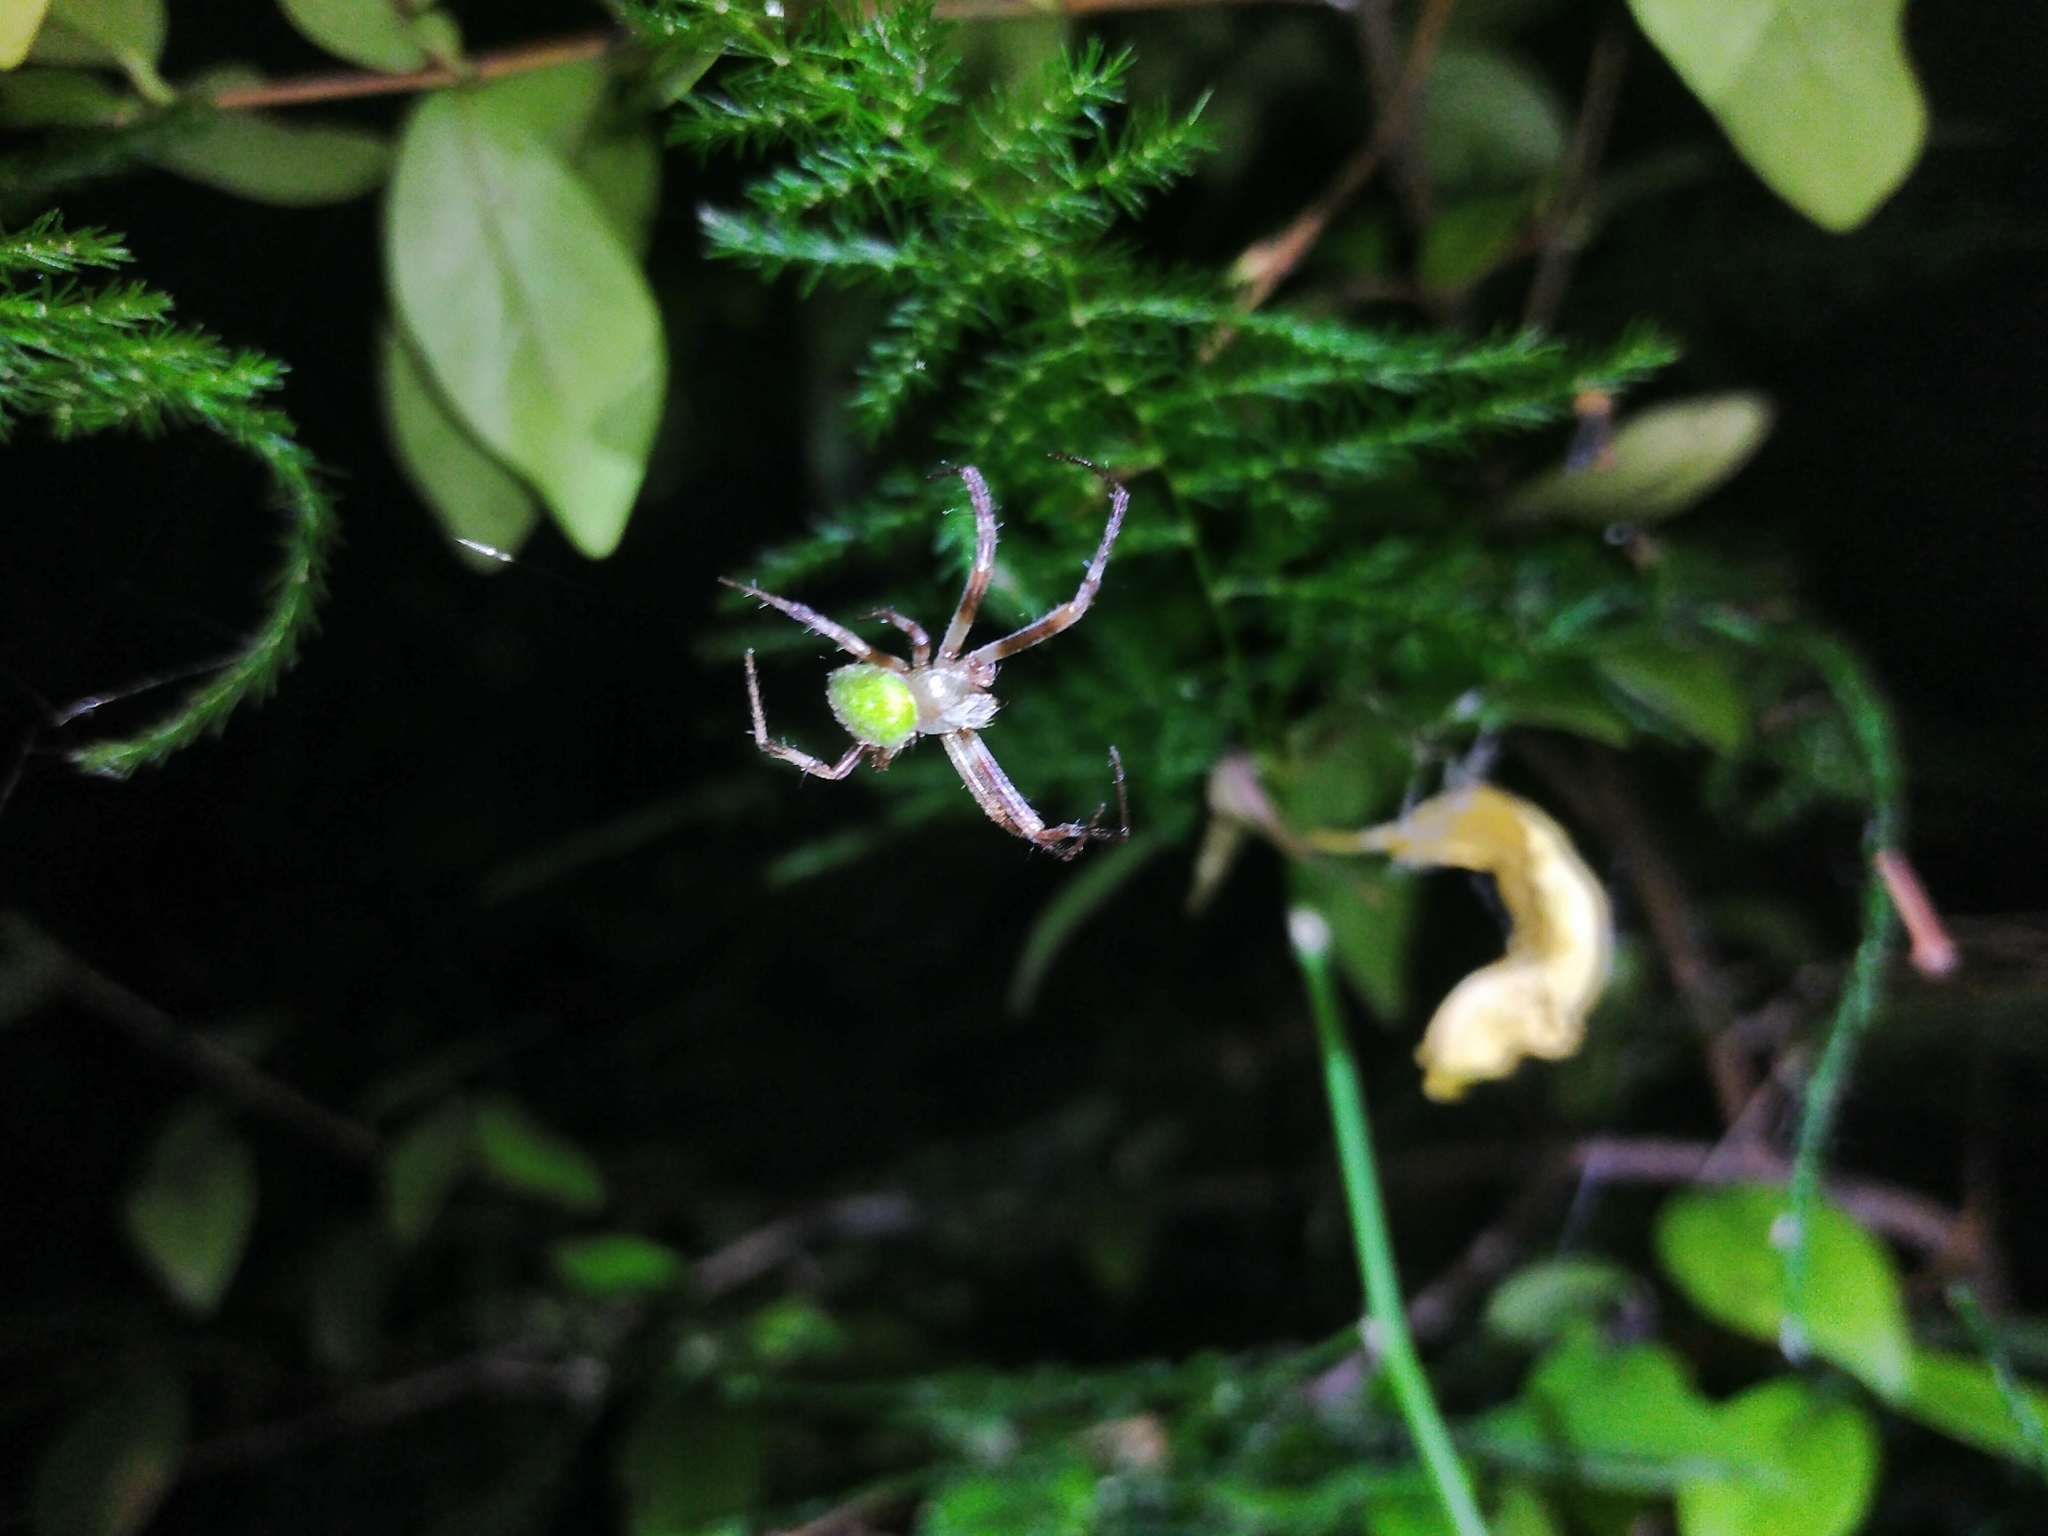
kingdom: Animalia
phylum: Arthropoda
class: Arachnida
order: Araneae
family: Araneidae
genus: Araneus
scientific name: Araneus lathyrinus
